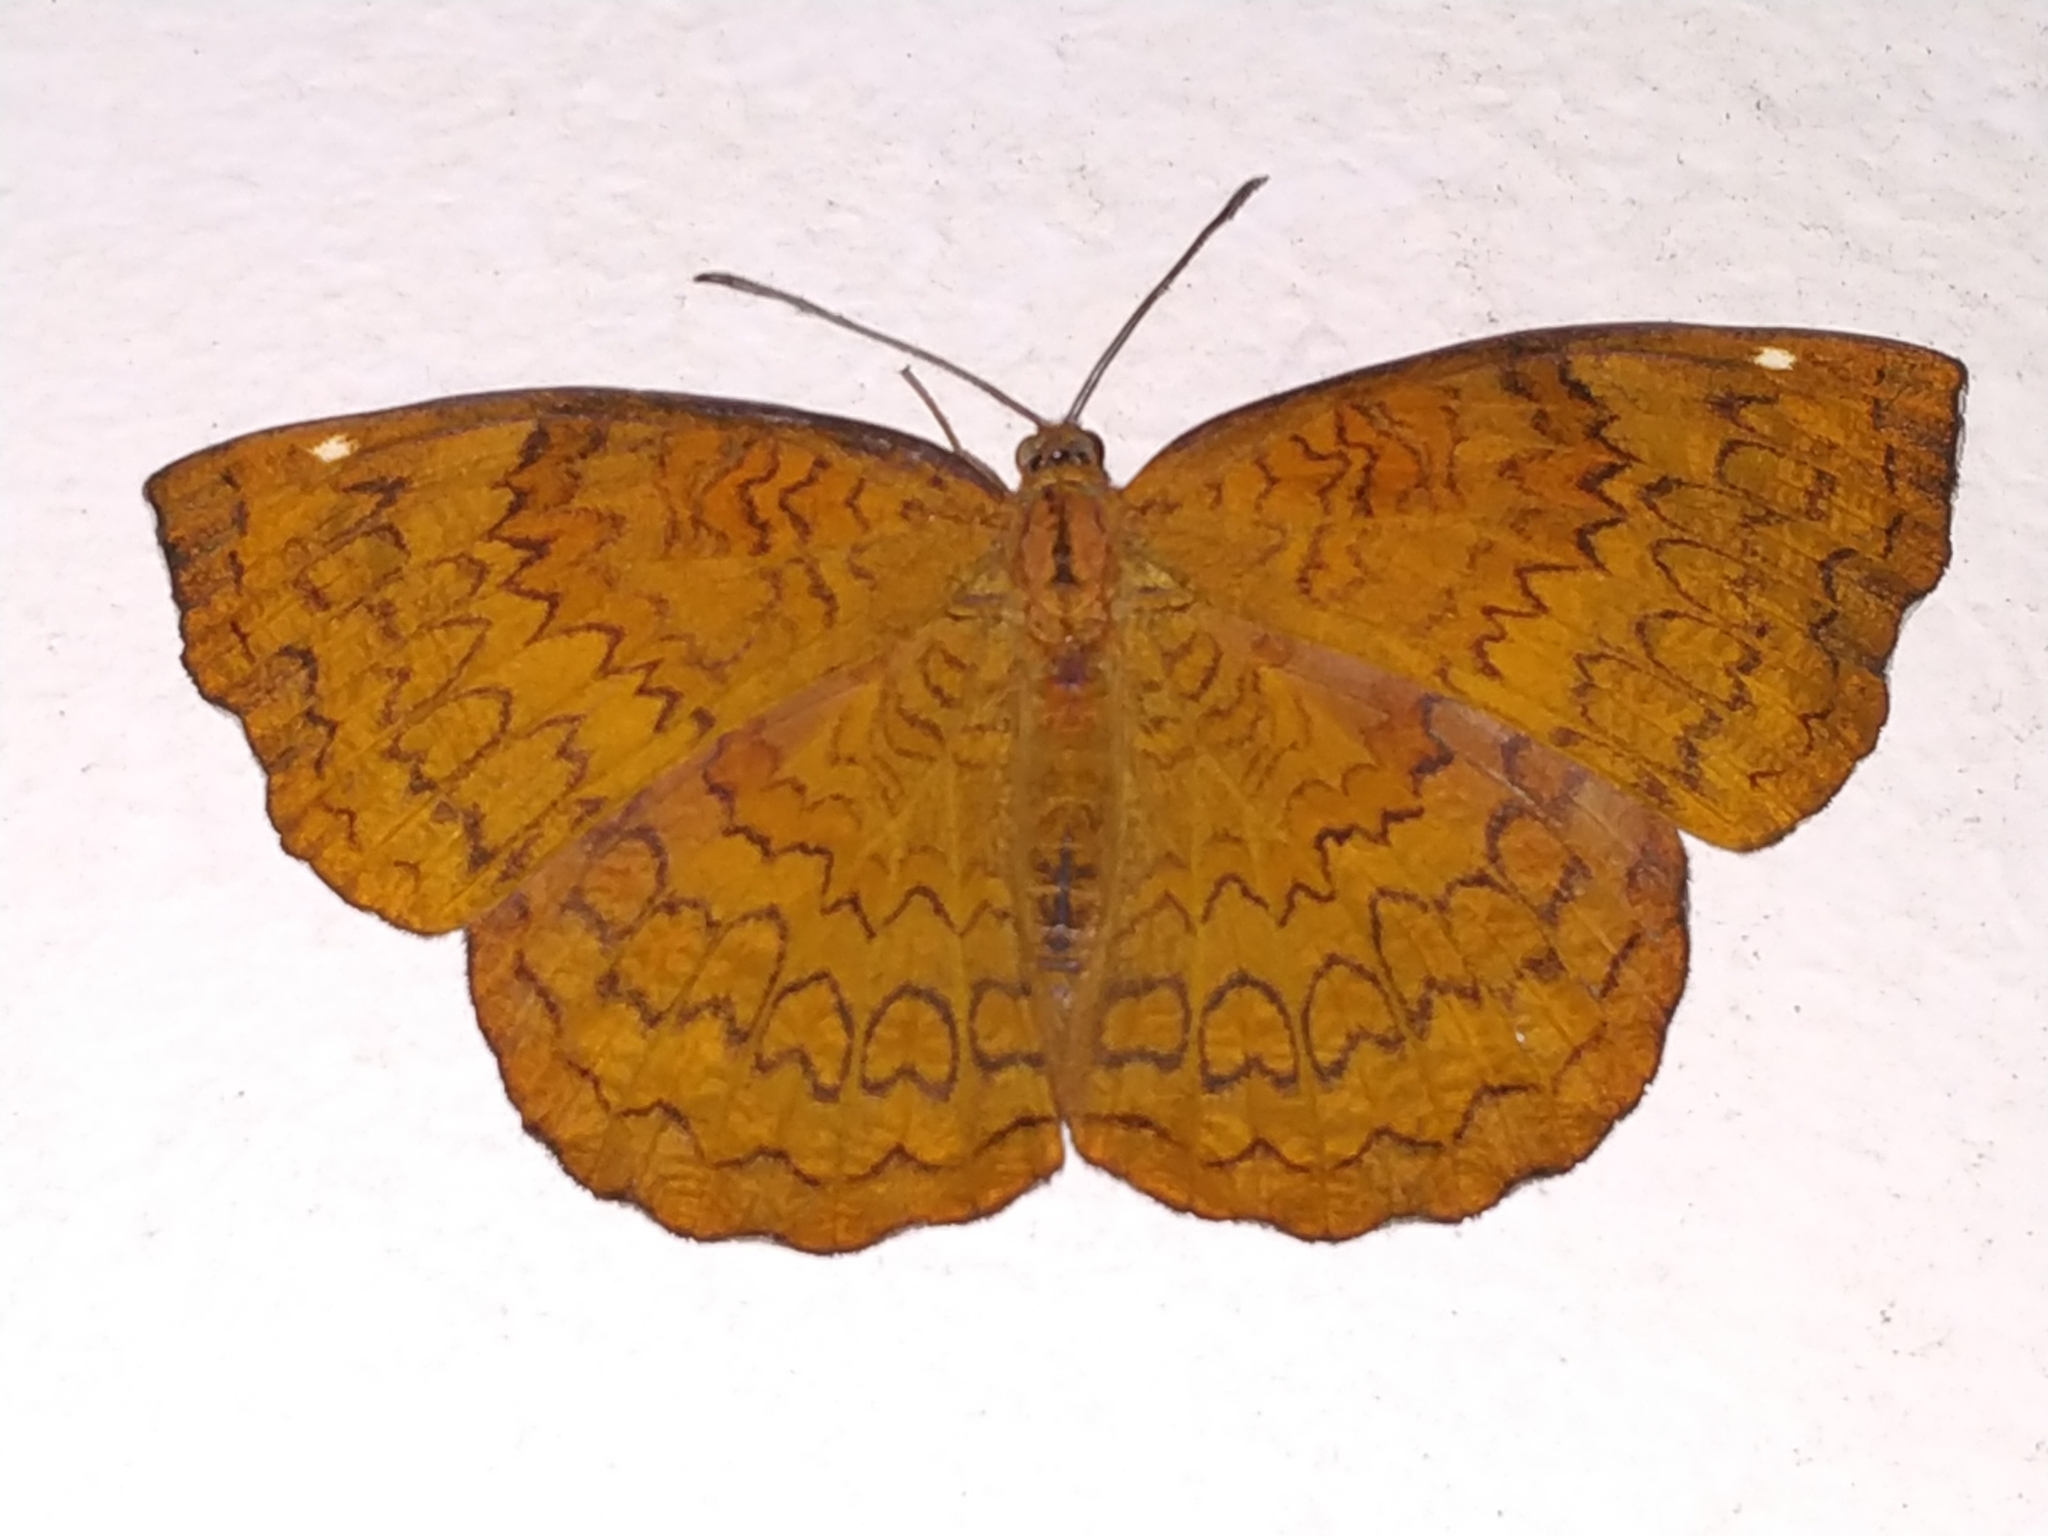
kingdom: Animalia
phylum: Arthropoda
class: Insecta
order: Lepidoptera
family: Nymphalidae
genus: Ariadne
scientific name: Ariadne merione
